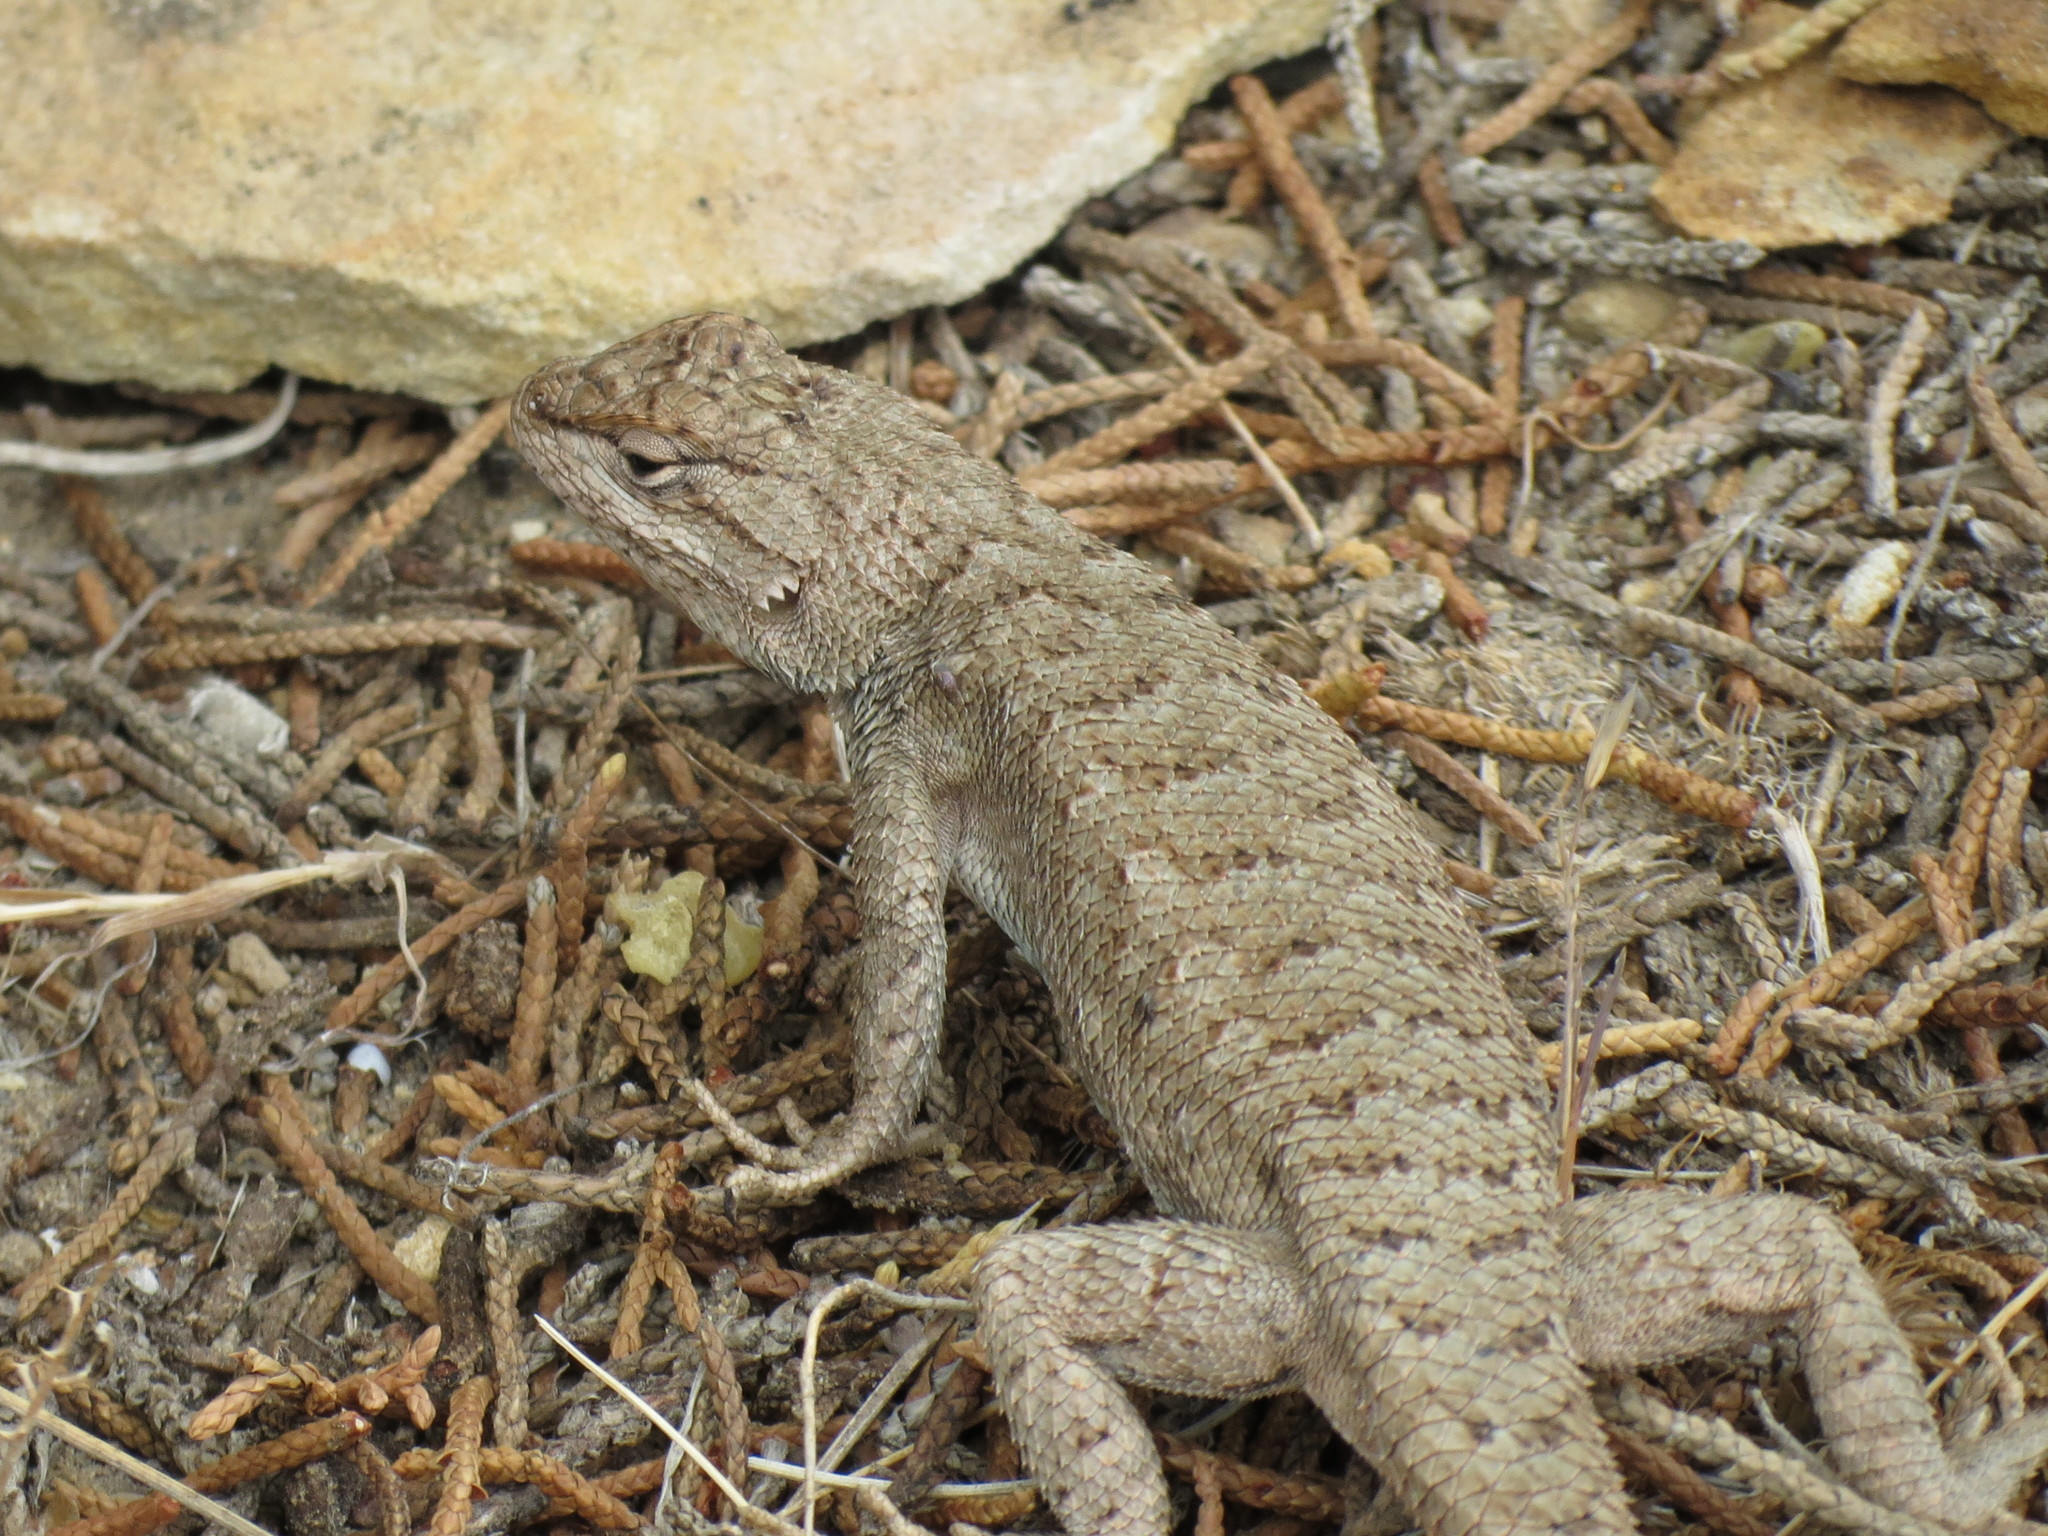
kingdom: Animalia
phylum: Chordata
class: Squamata
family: Phrynosomatidae
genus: Sceloporus
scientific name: Sceloporus tristichus
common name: Plateau fence lizard
